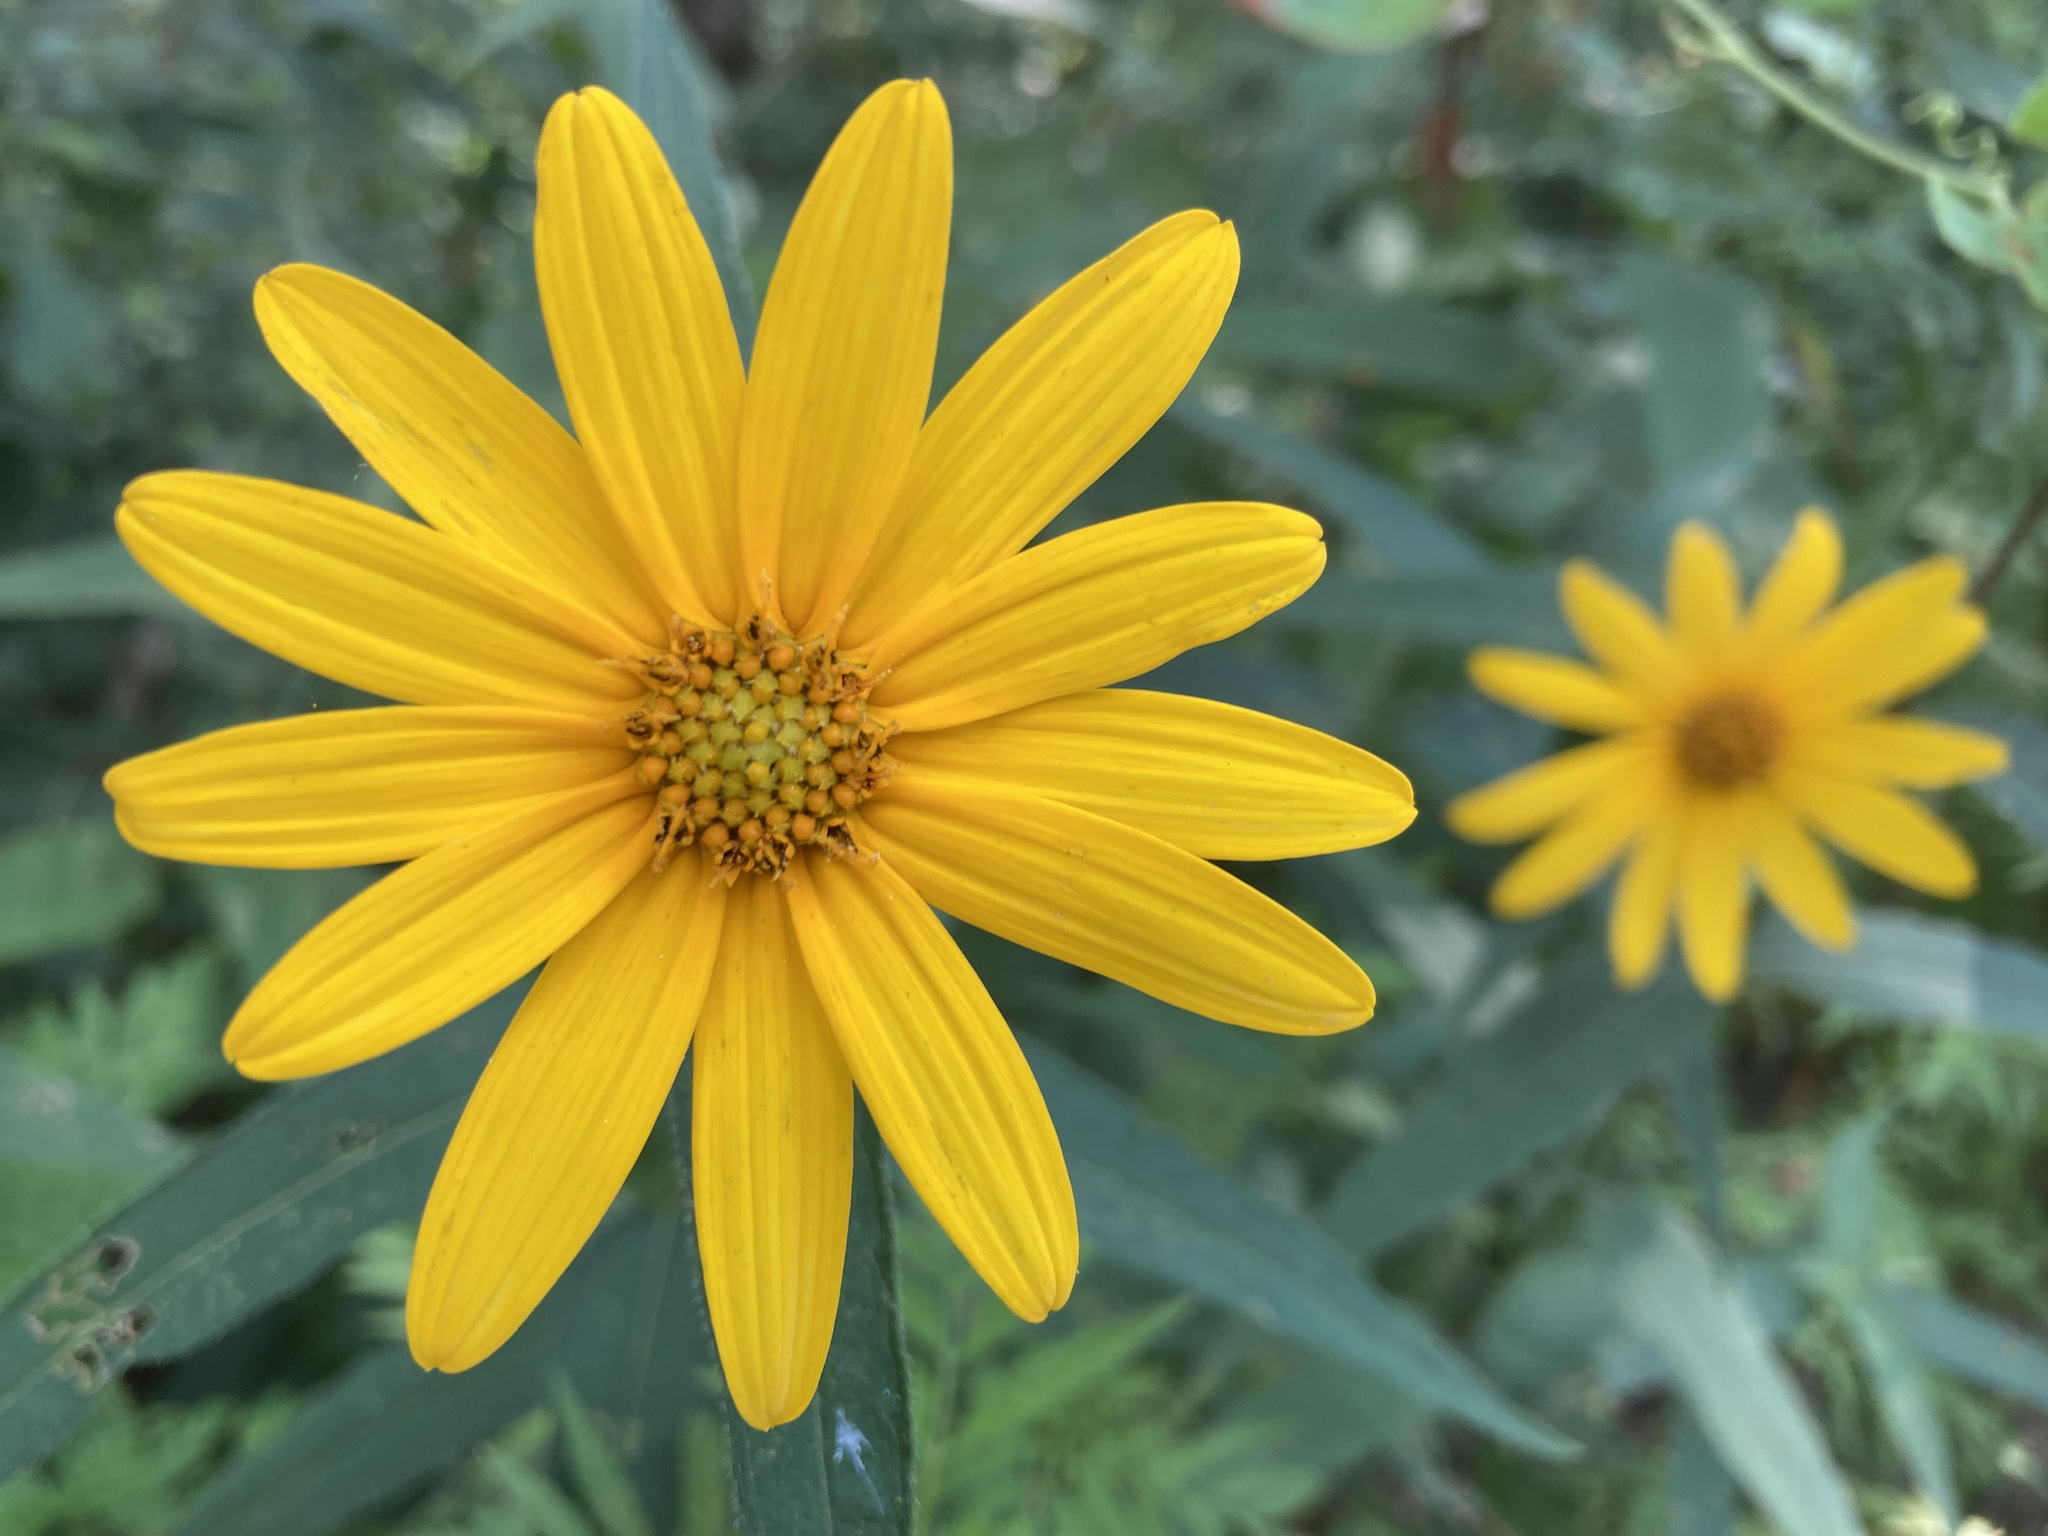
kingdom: Plantae
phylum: Tracheophyta
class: Magnoliopsida
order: Asterales
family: Asteraceae
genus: Helianthus
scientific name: Helianthus divaricatus
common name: Divergent sunflower
